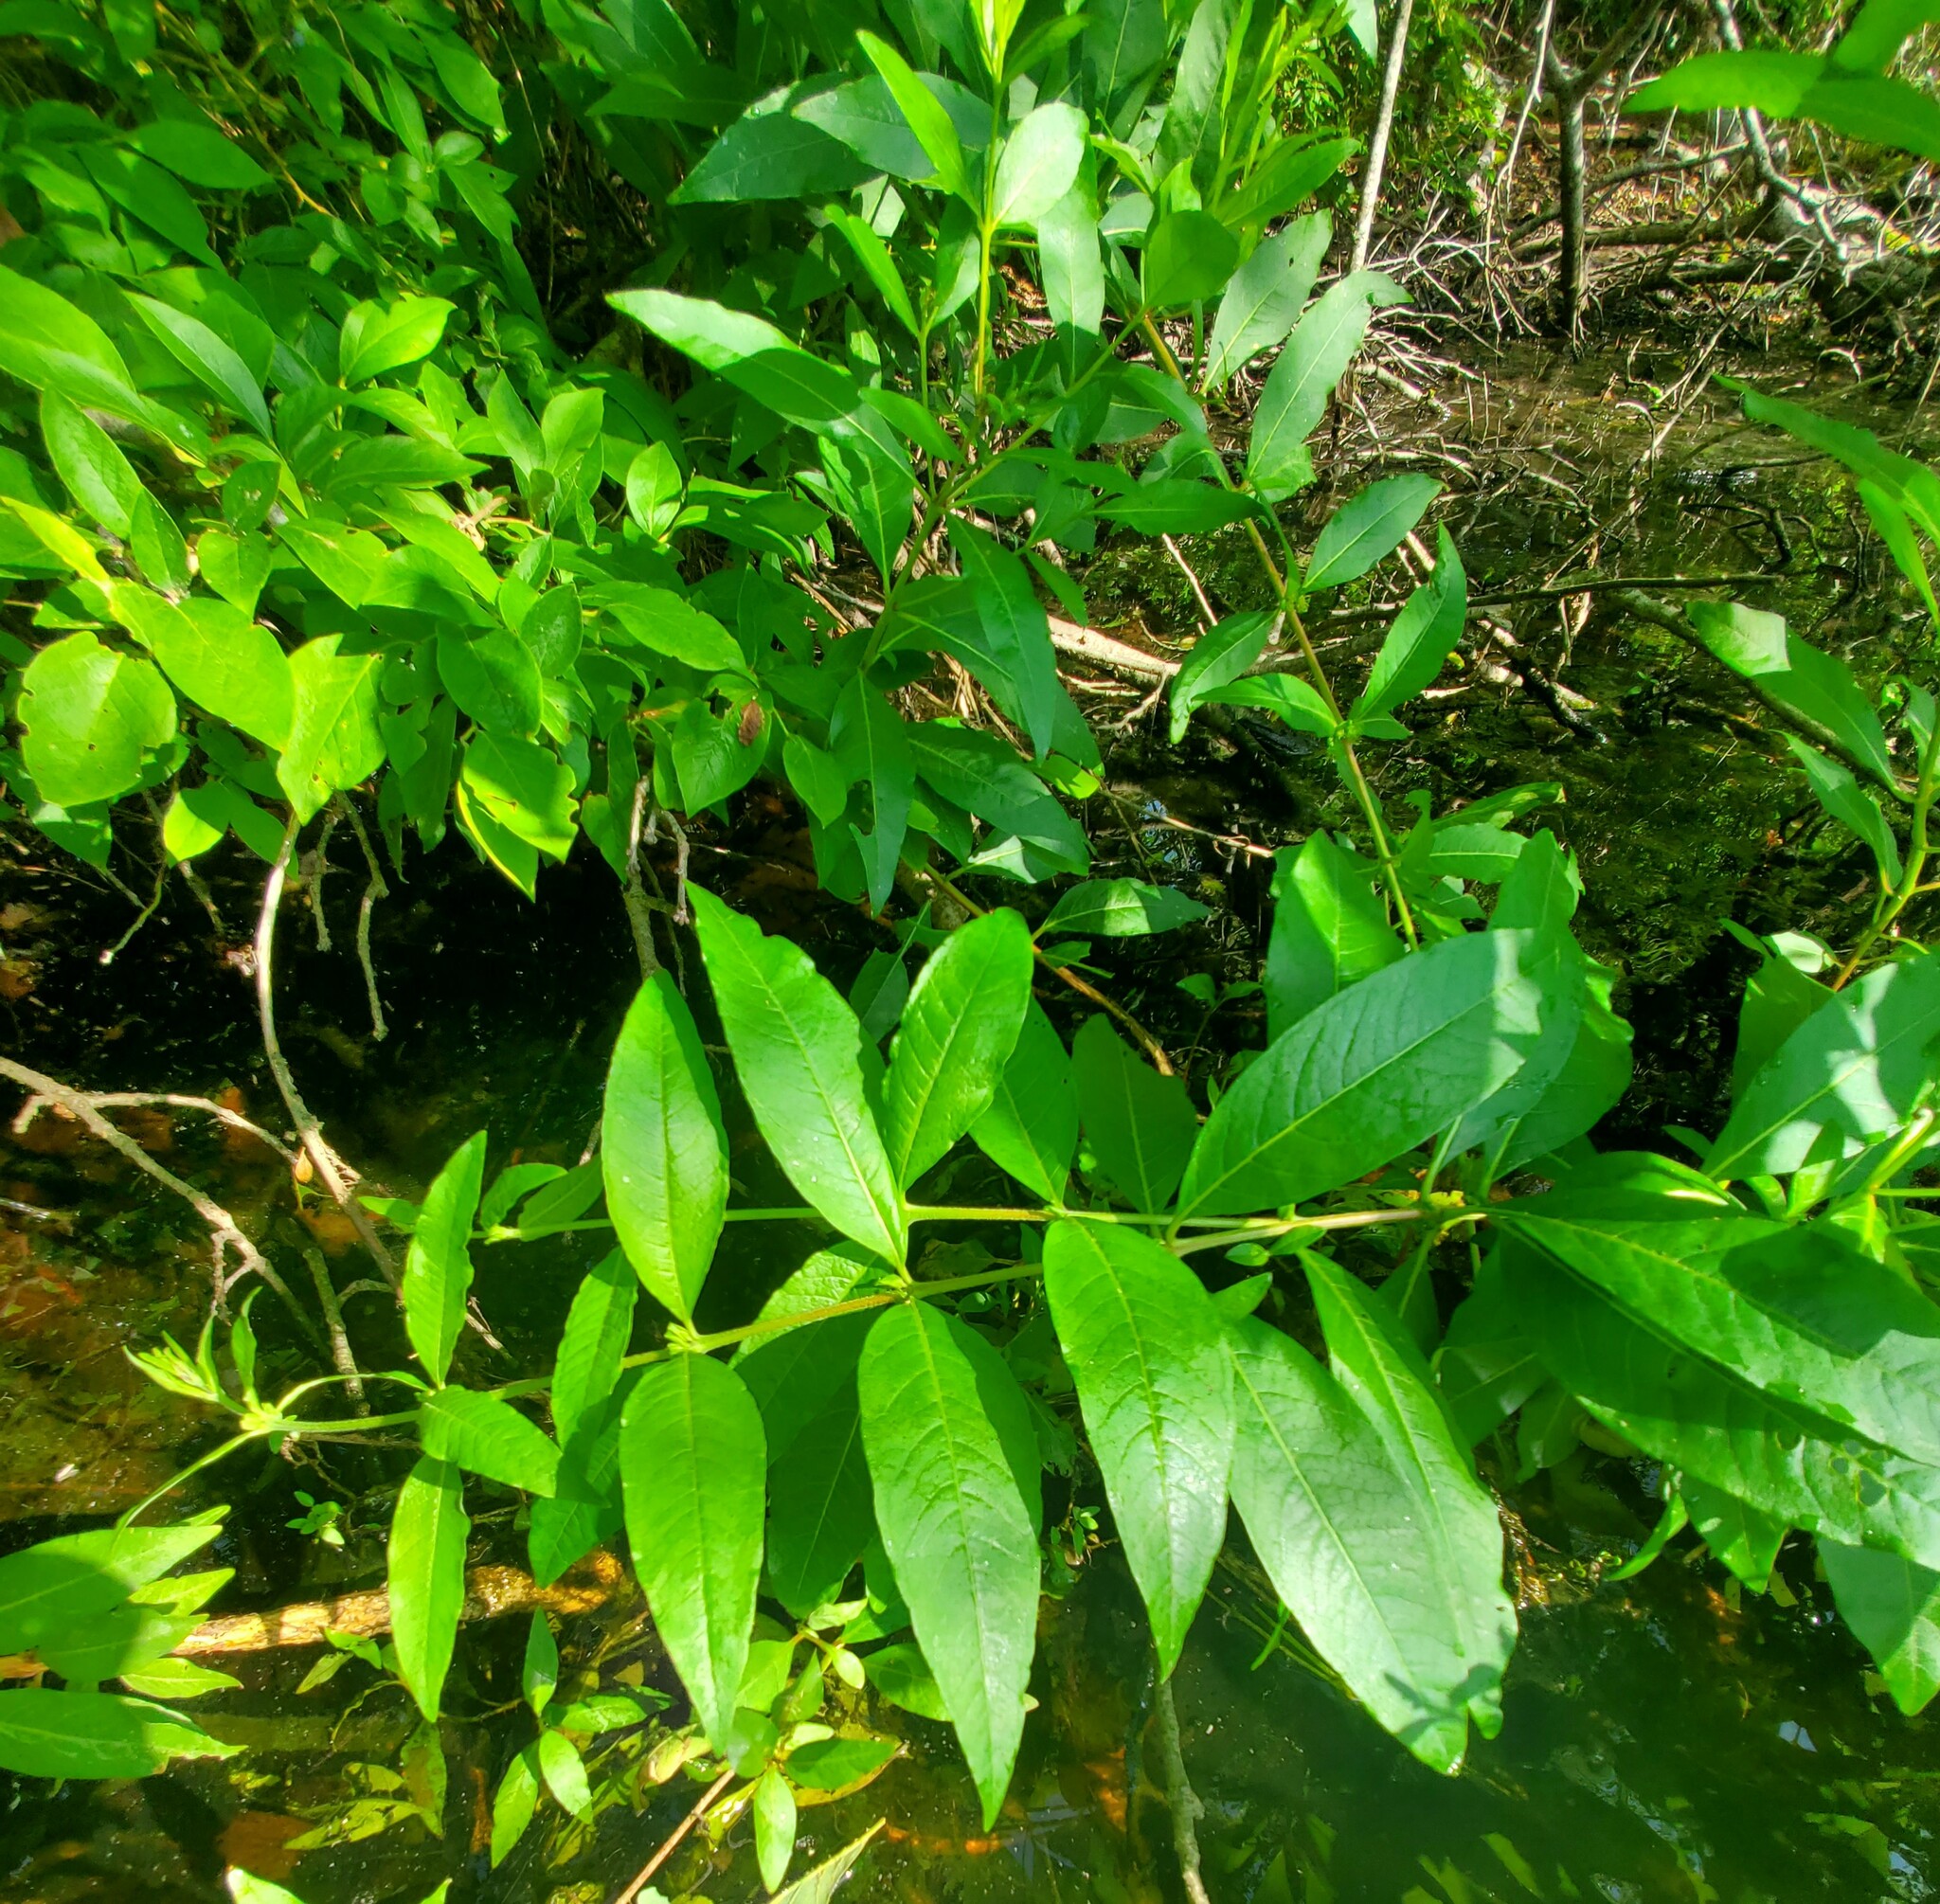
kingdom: Plantae
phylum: Tracheophyta
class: Magnoliopsida
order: Myrtales
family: Lythraceae
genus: Decodon
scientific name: Decodon verticillatus
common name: Hairy swamp loosestrife
